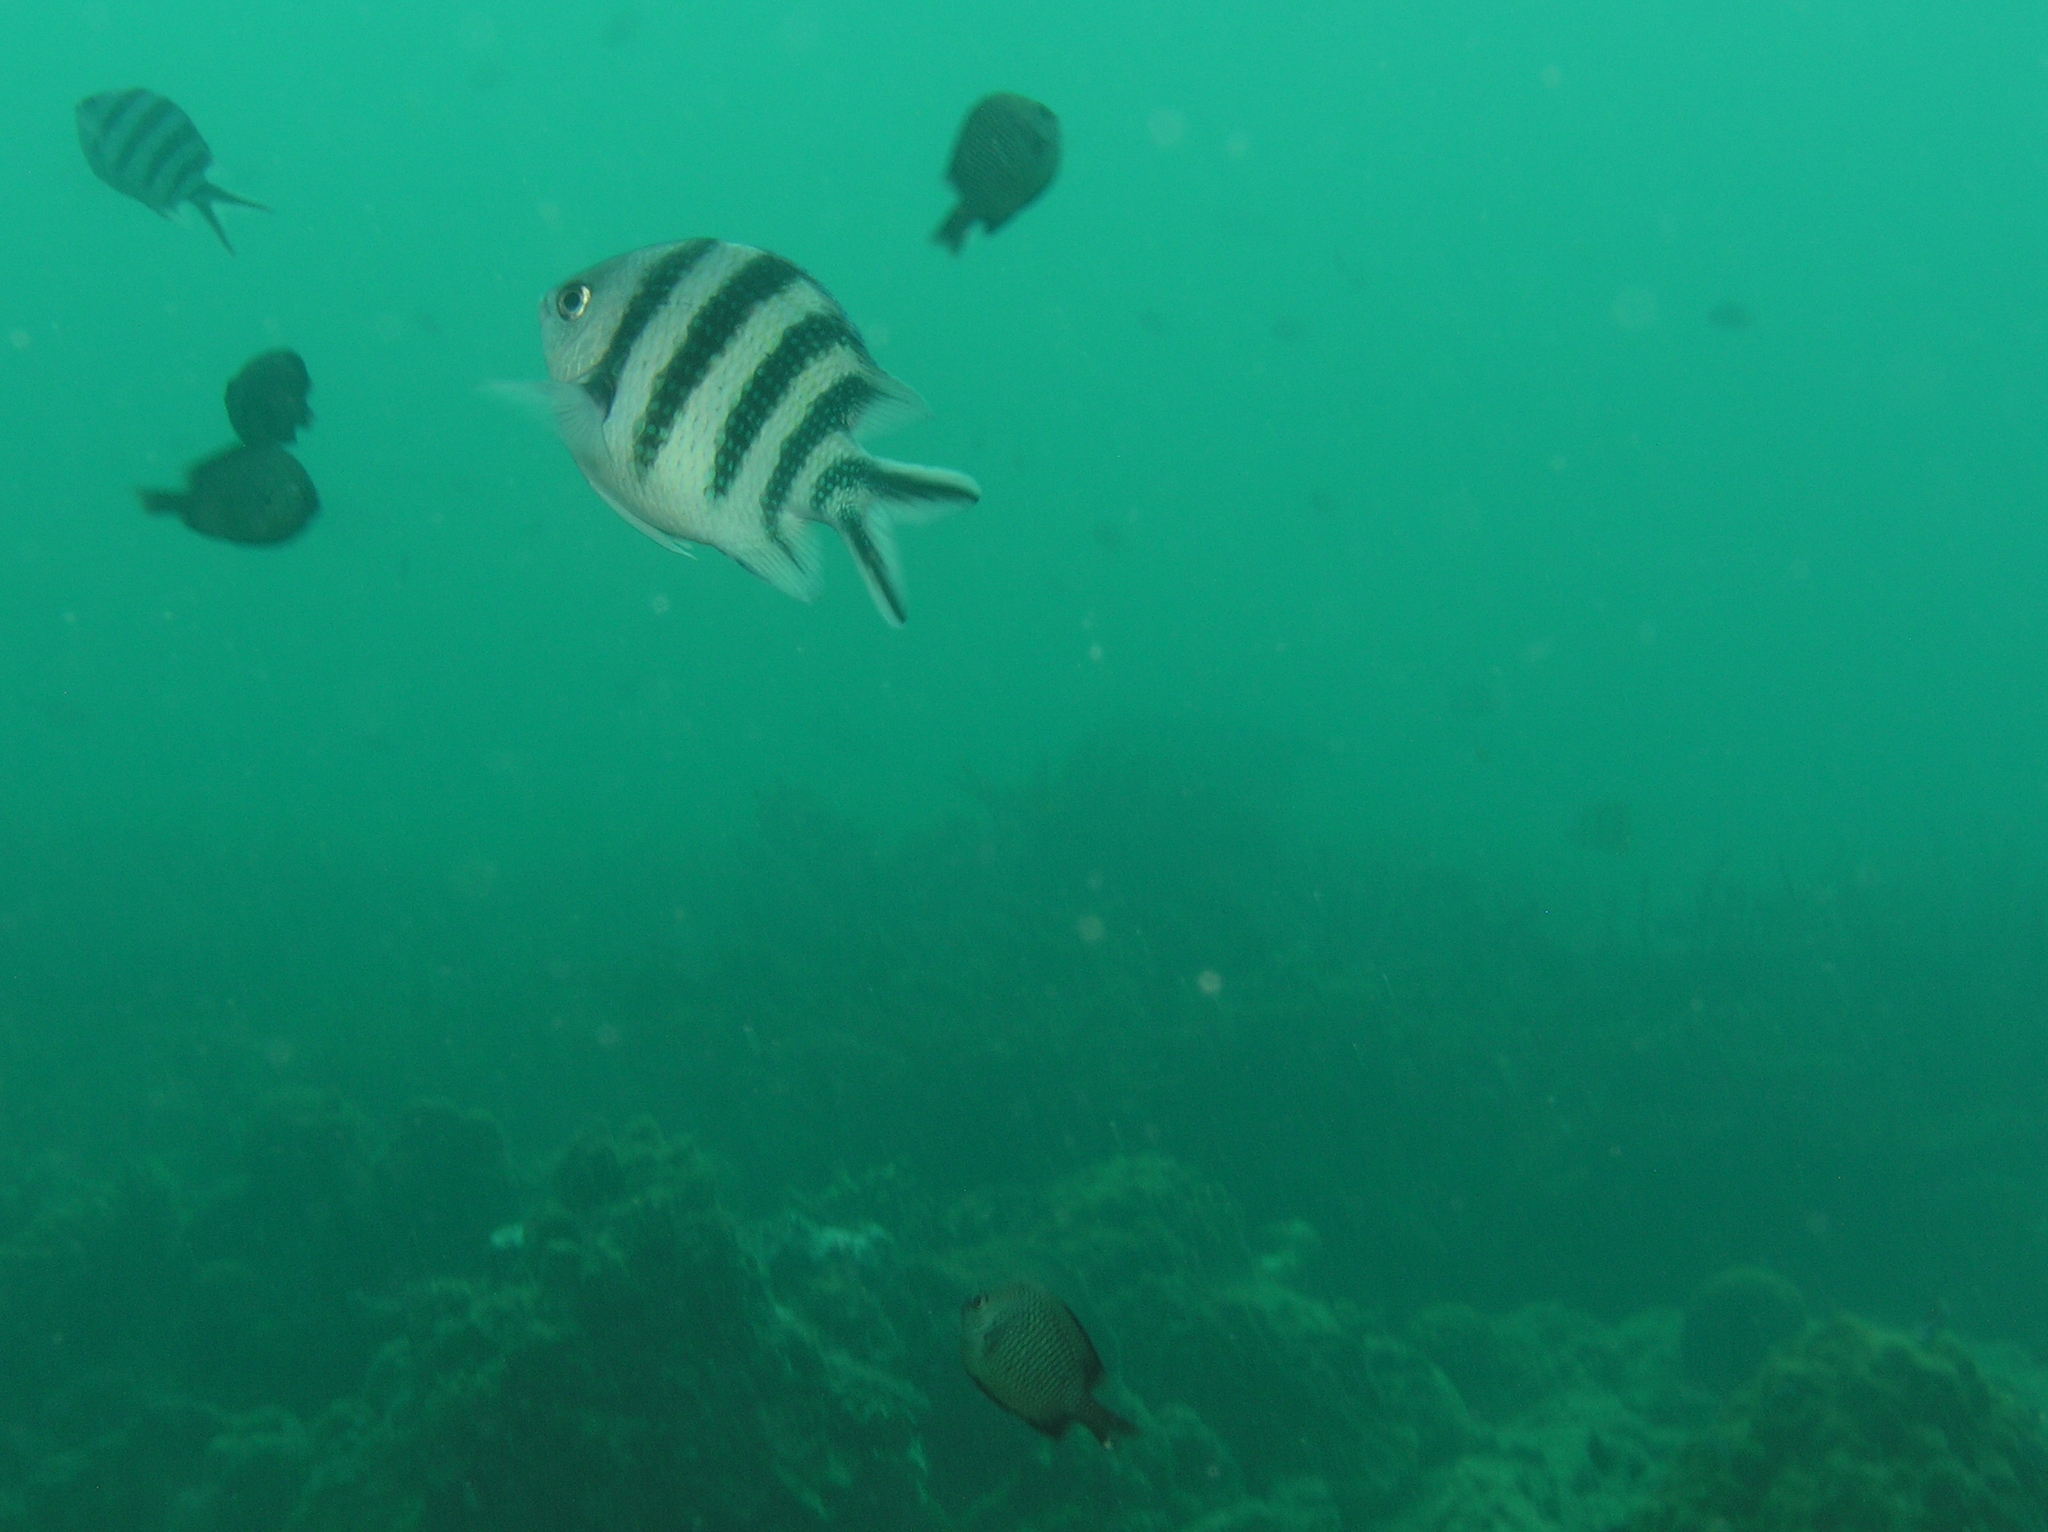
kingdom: Animalia
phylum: Chordata
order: Perciformes
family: Pomacentridae
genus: Abudefduf
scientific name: Abudefduf sexfasciatus
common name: Scissortail sergeant
